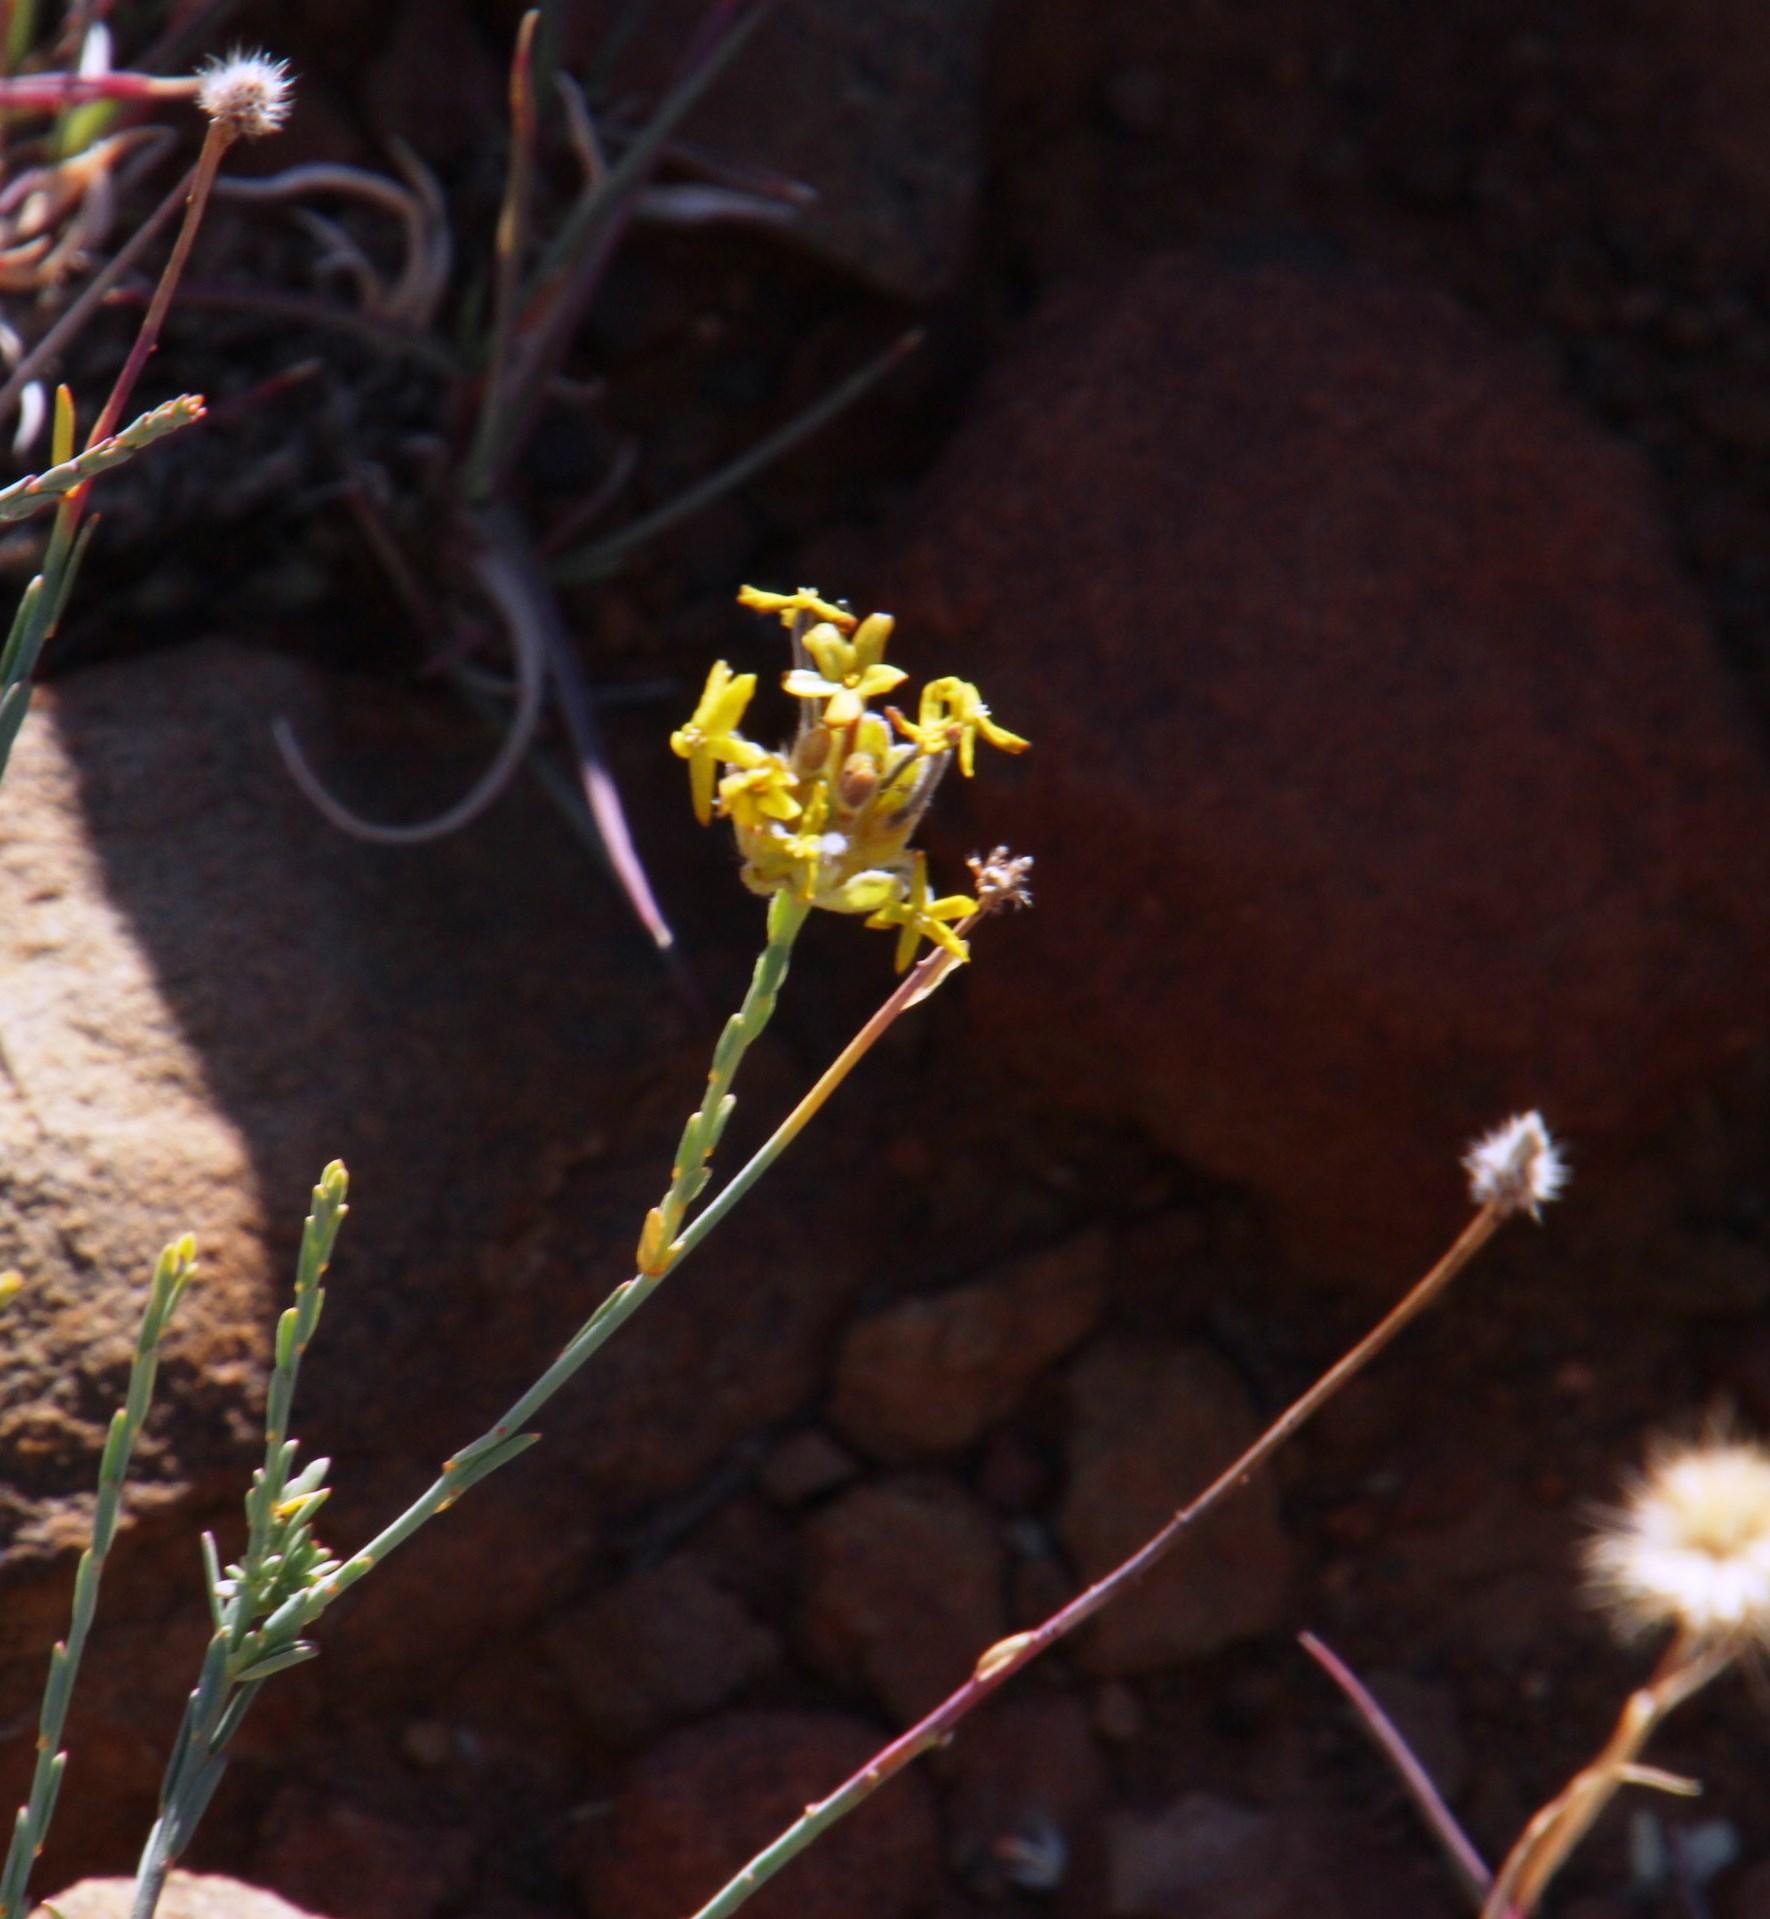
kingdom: Plantae
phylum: Tracheophyta
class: Magnoliopsida
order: Malvales
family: Thymelaeaceae
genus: Gnidia
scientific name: Gnidia kuntzei
